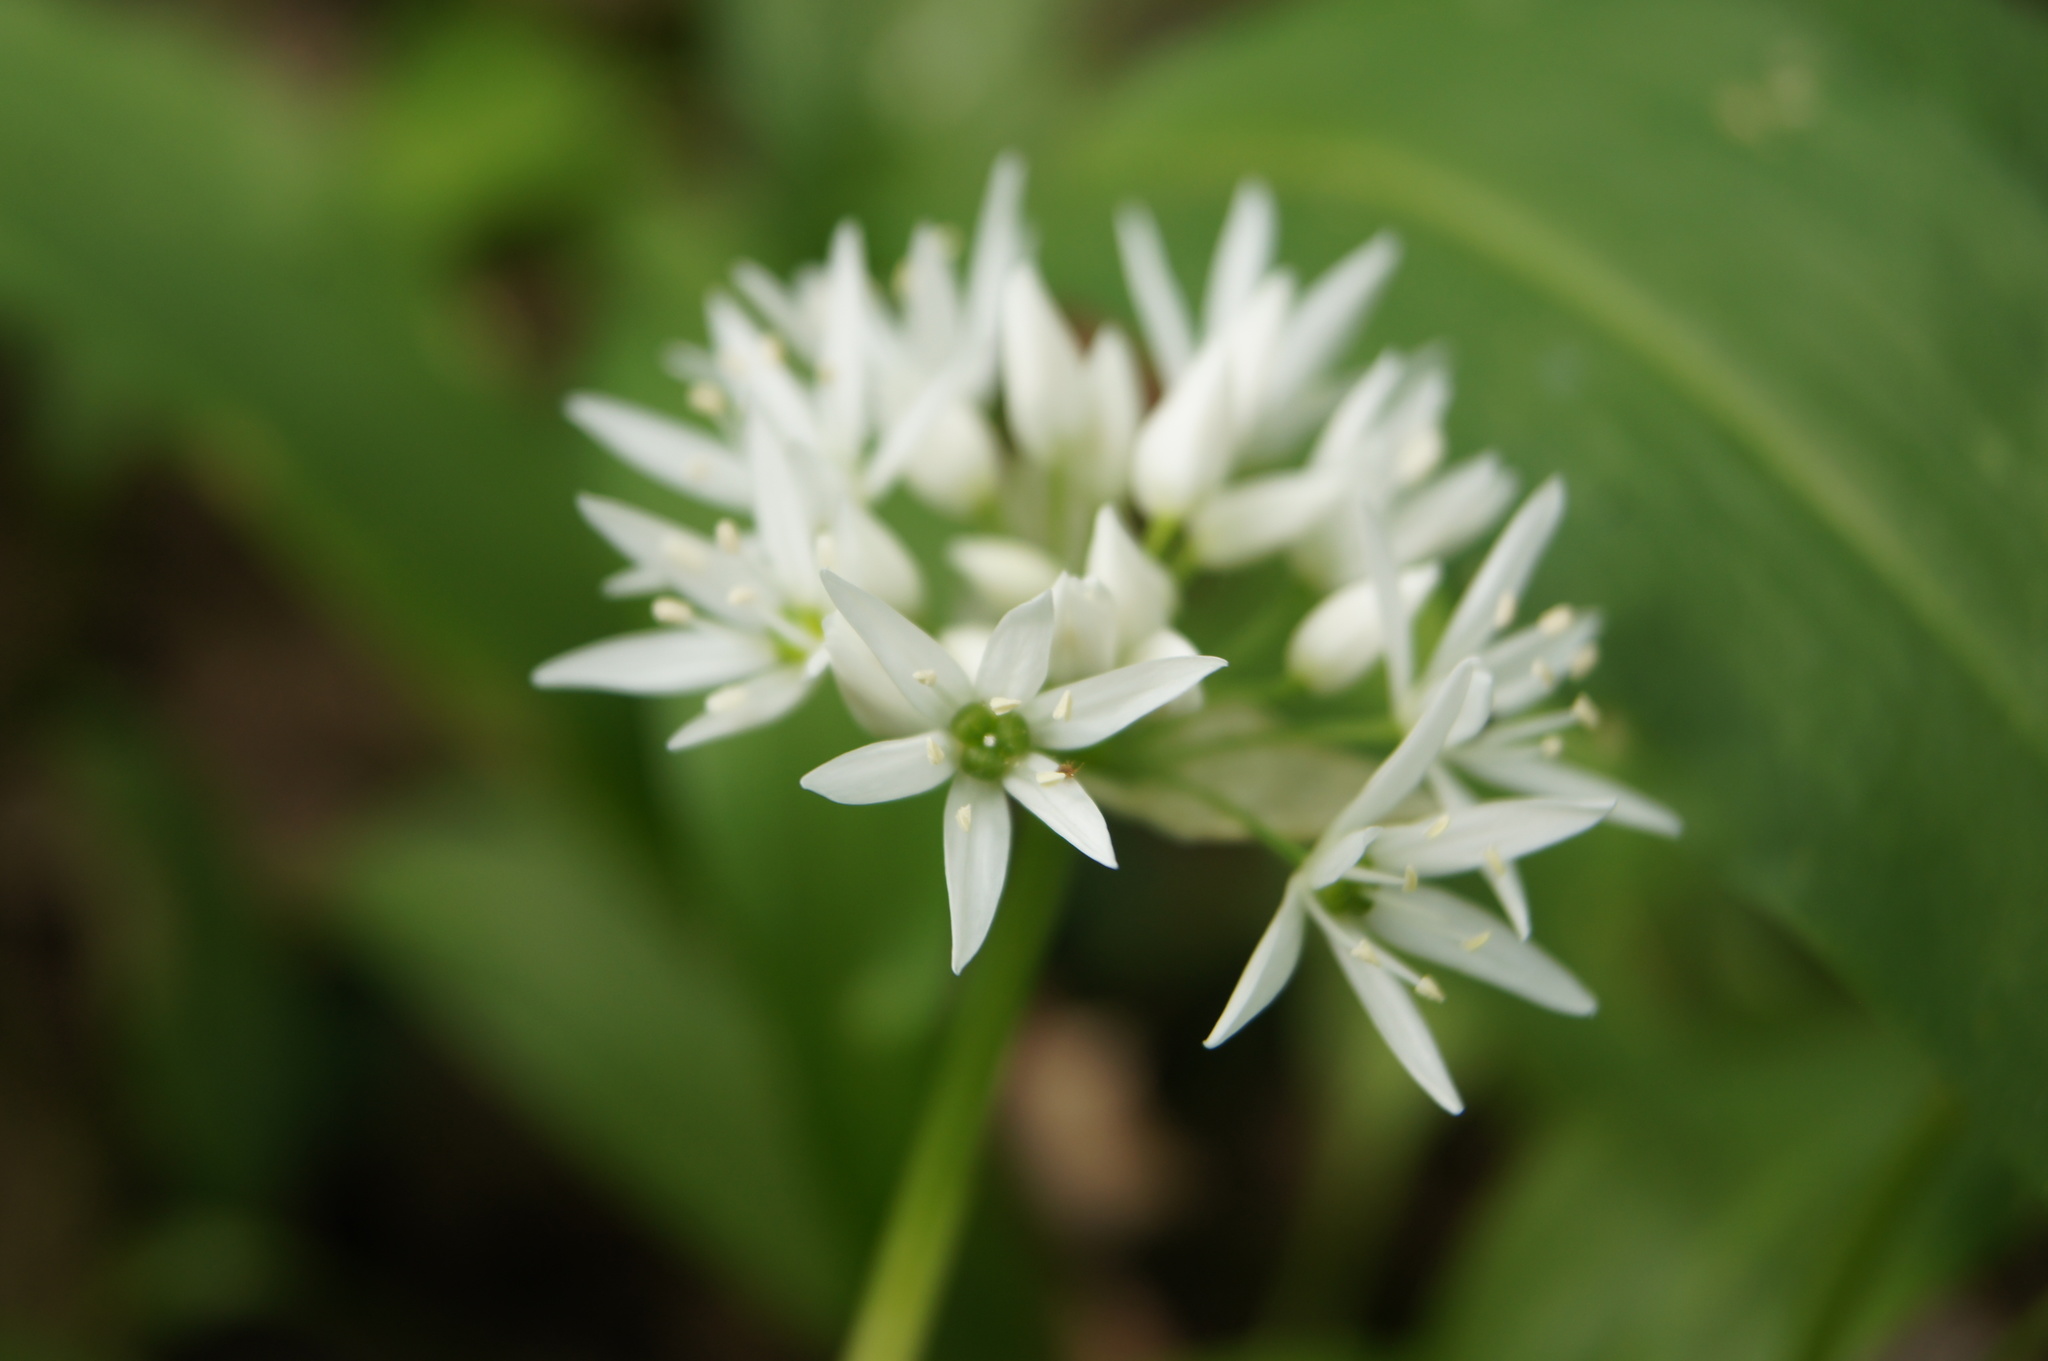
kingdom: Plantae
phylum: Tracheophyta
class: Liliopsida
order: Asparagales
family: Amaryllidaceae
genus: Allium
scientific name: Allium ursinum
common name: Ramsons
